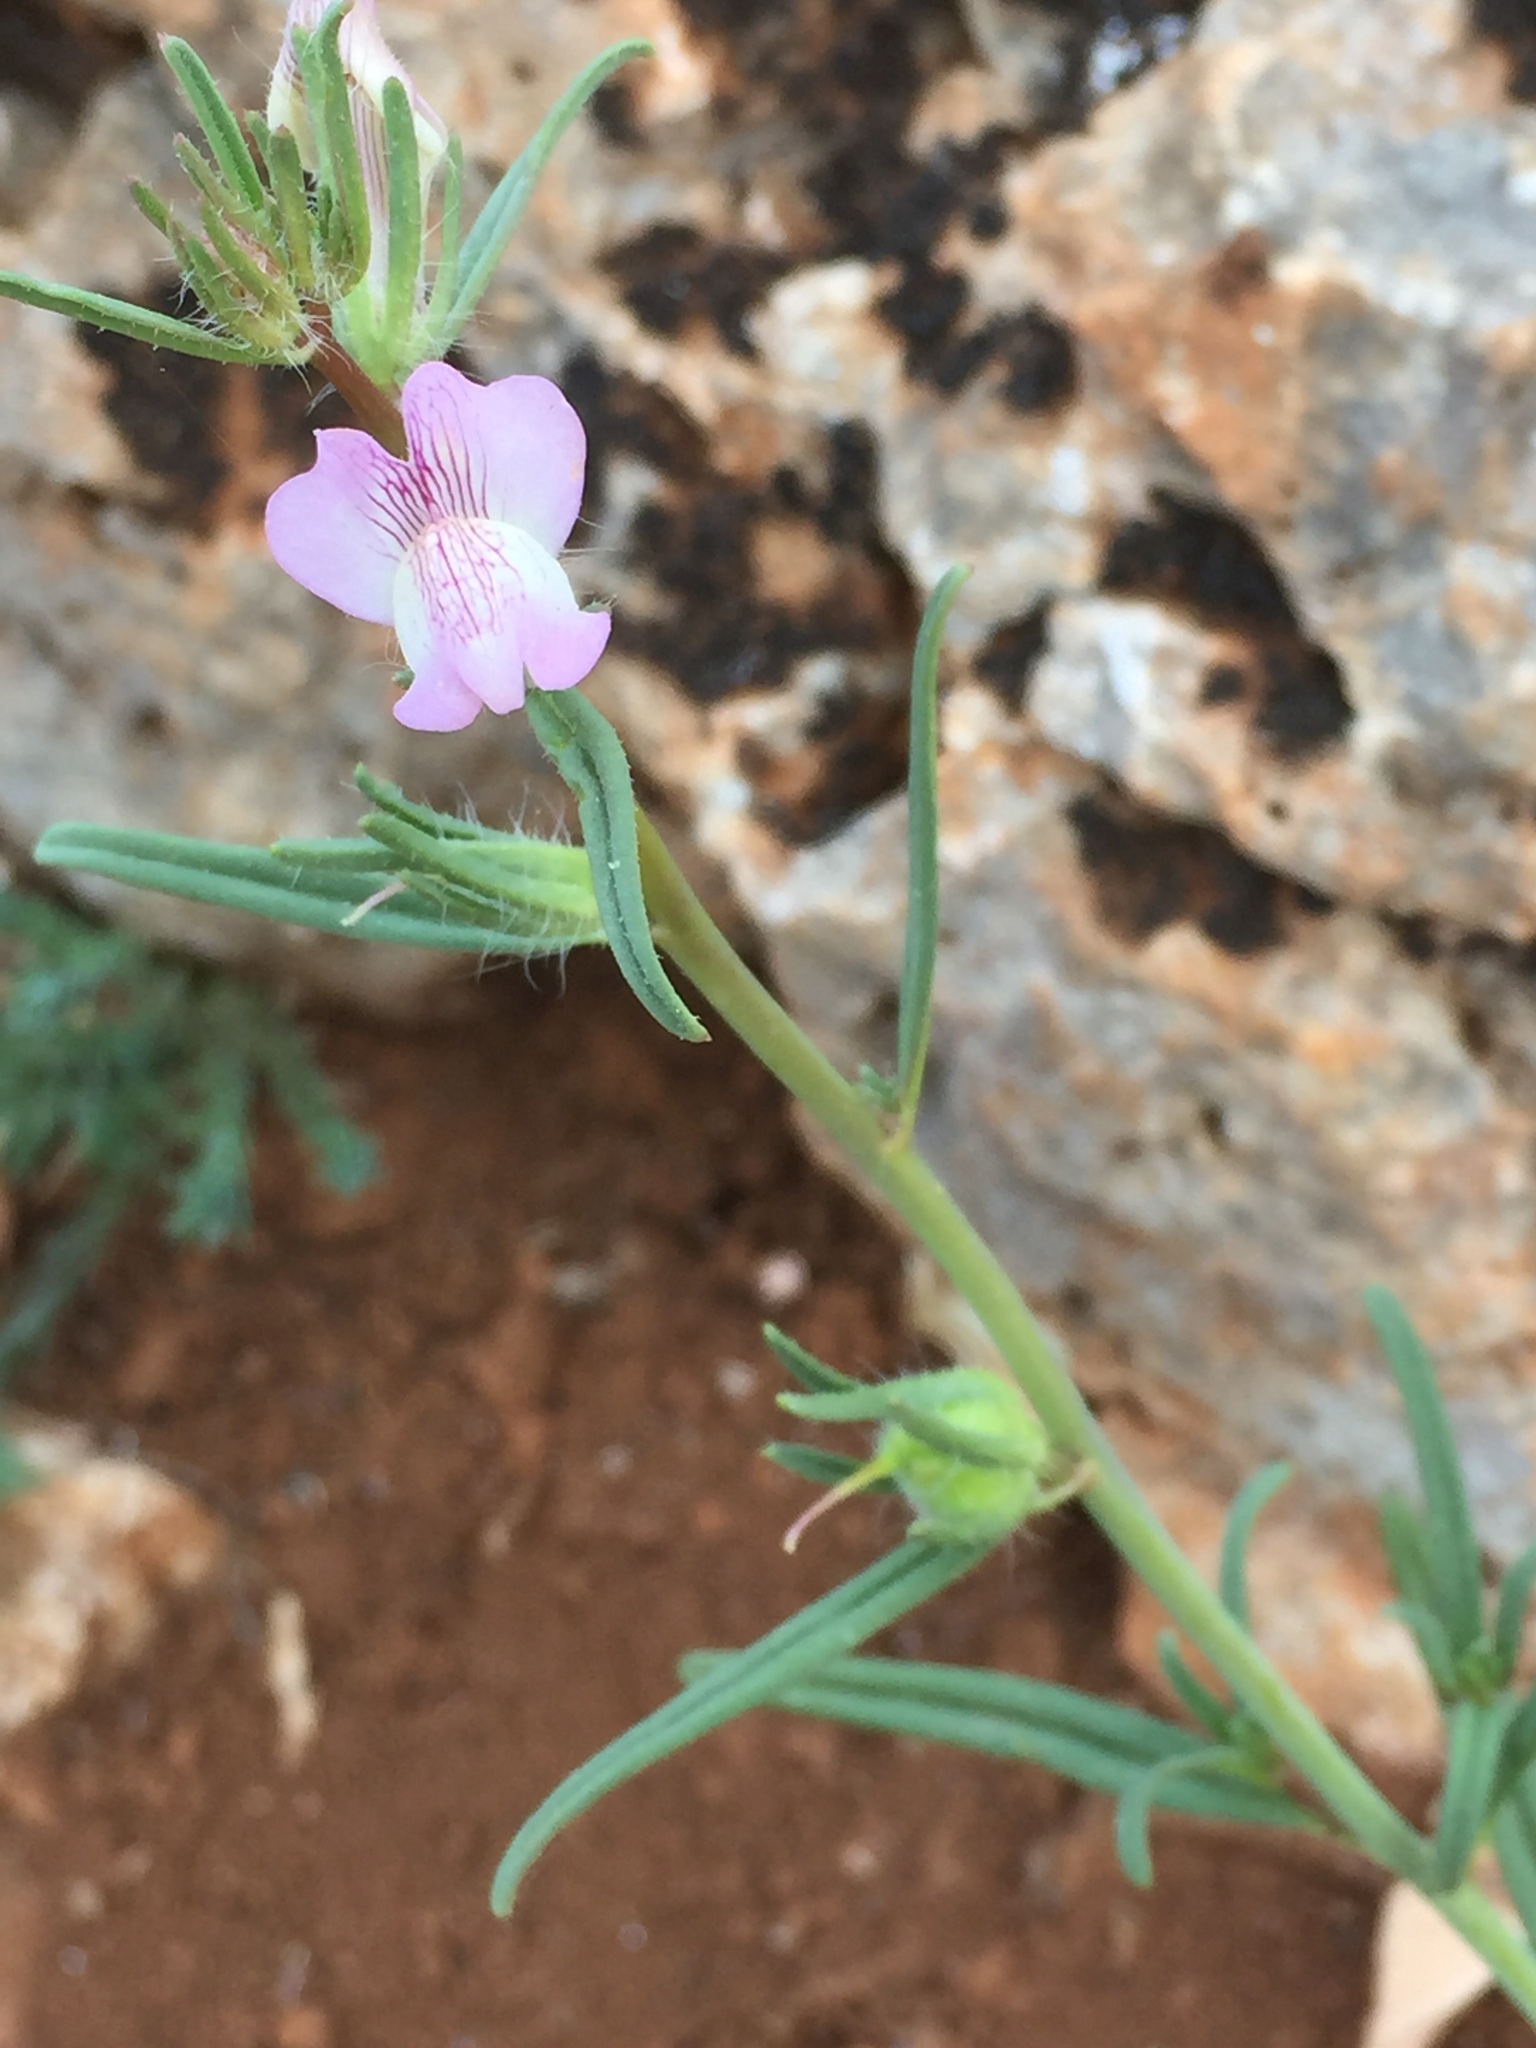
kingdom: Plantae
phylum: Tracheophyta
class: Magnoliopsida
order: Lamiales
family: Plantaginaceae
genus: Misopates
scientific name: Misopates orontium
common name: Weasel's-snout
